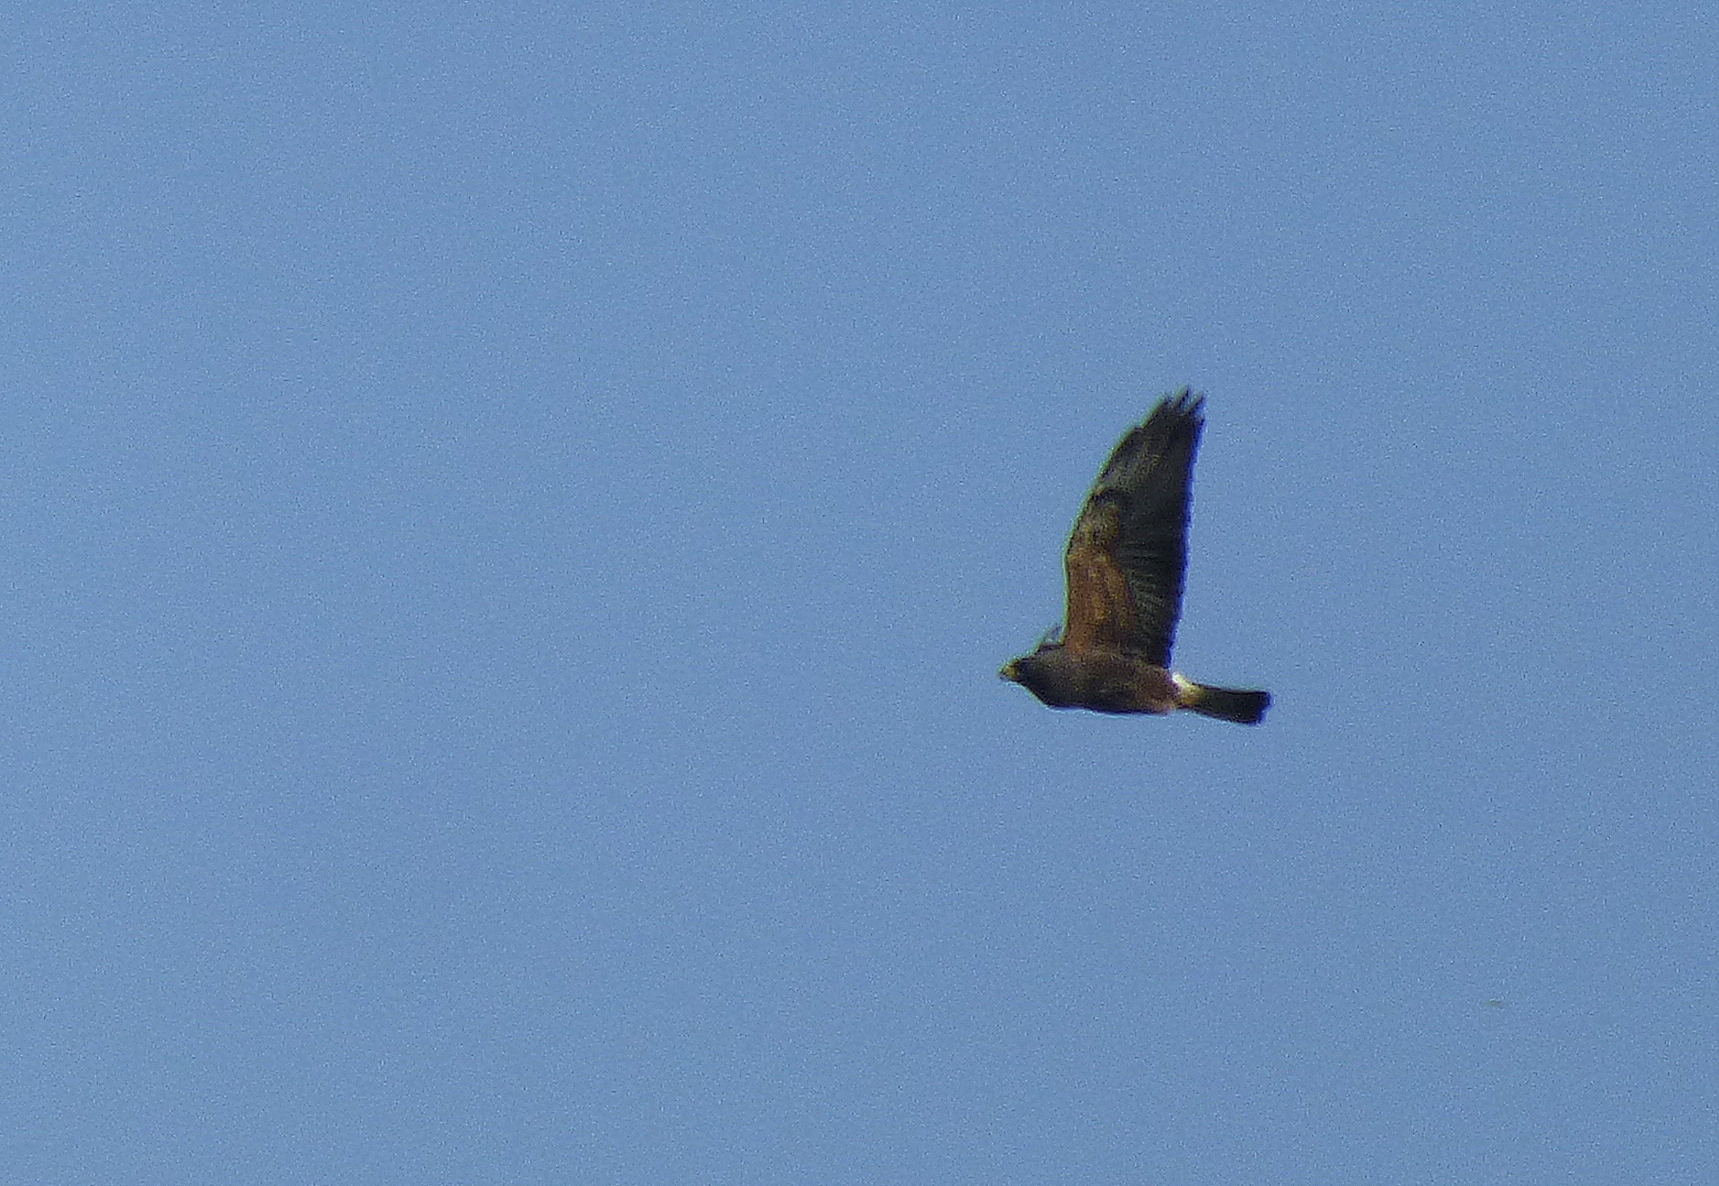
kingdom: Animalia
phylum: Chordata
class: Aves
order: Accipitriformes
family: Accipitridae
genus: Buteo
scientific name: Buteo swainsoni
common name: Swainson's hawk
